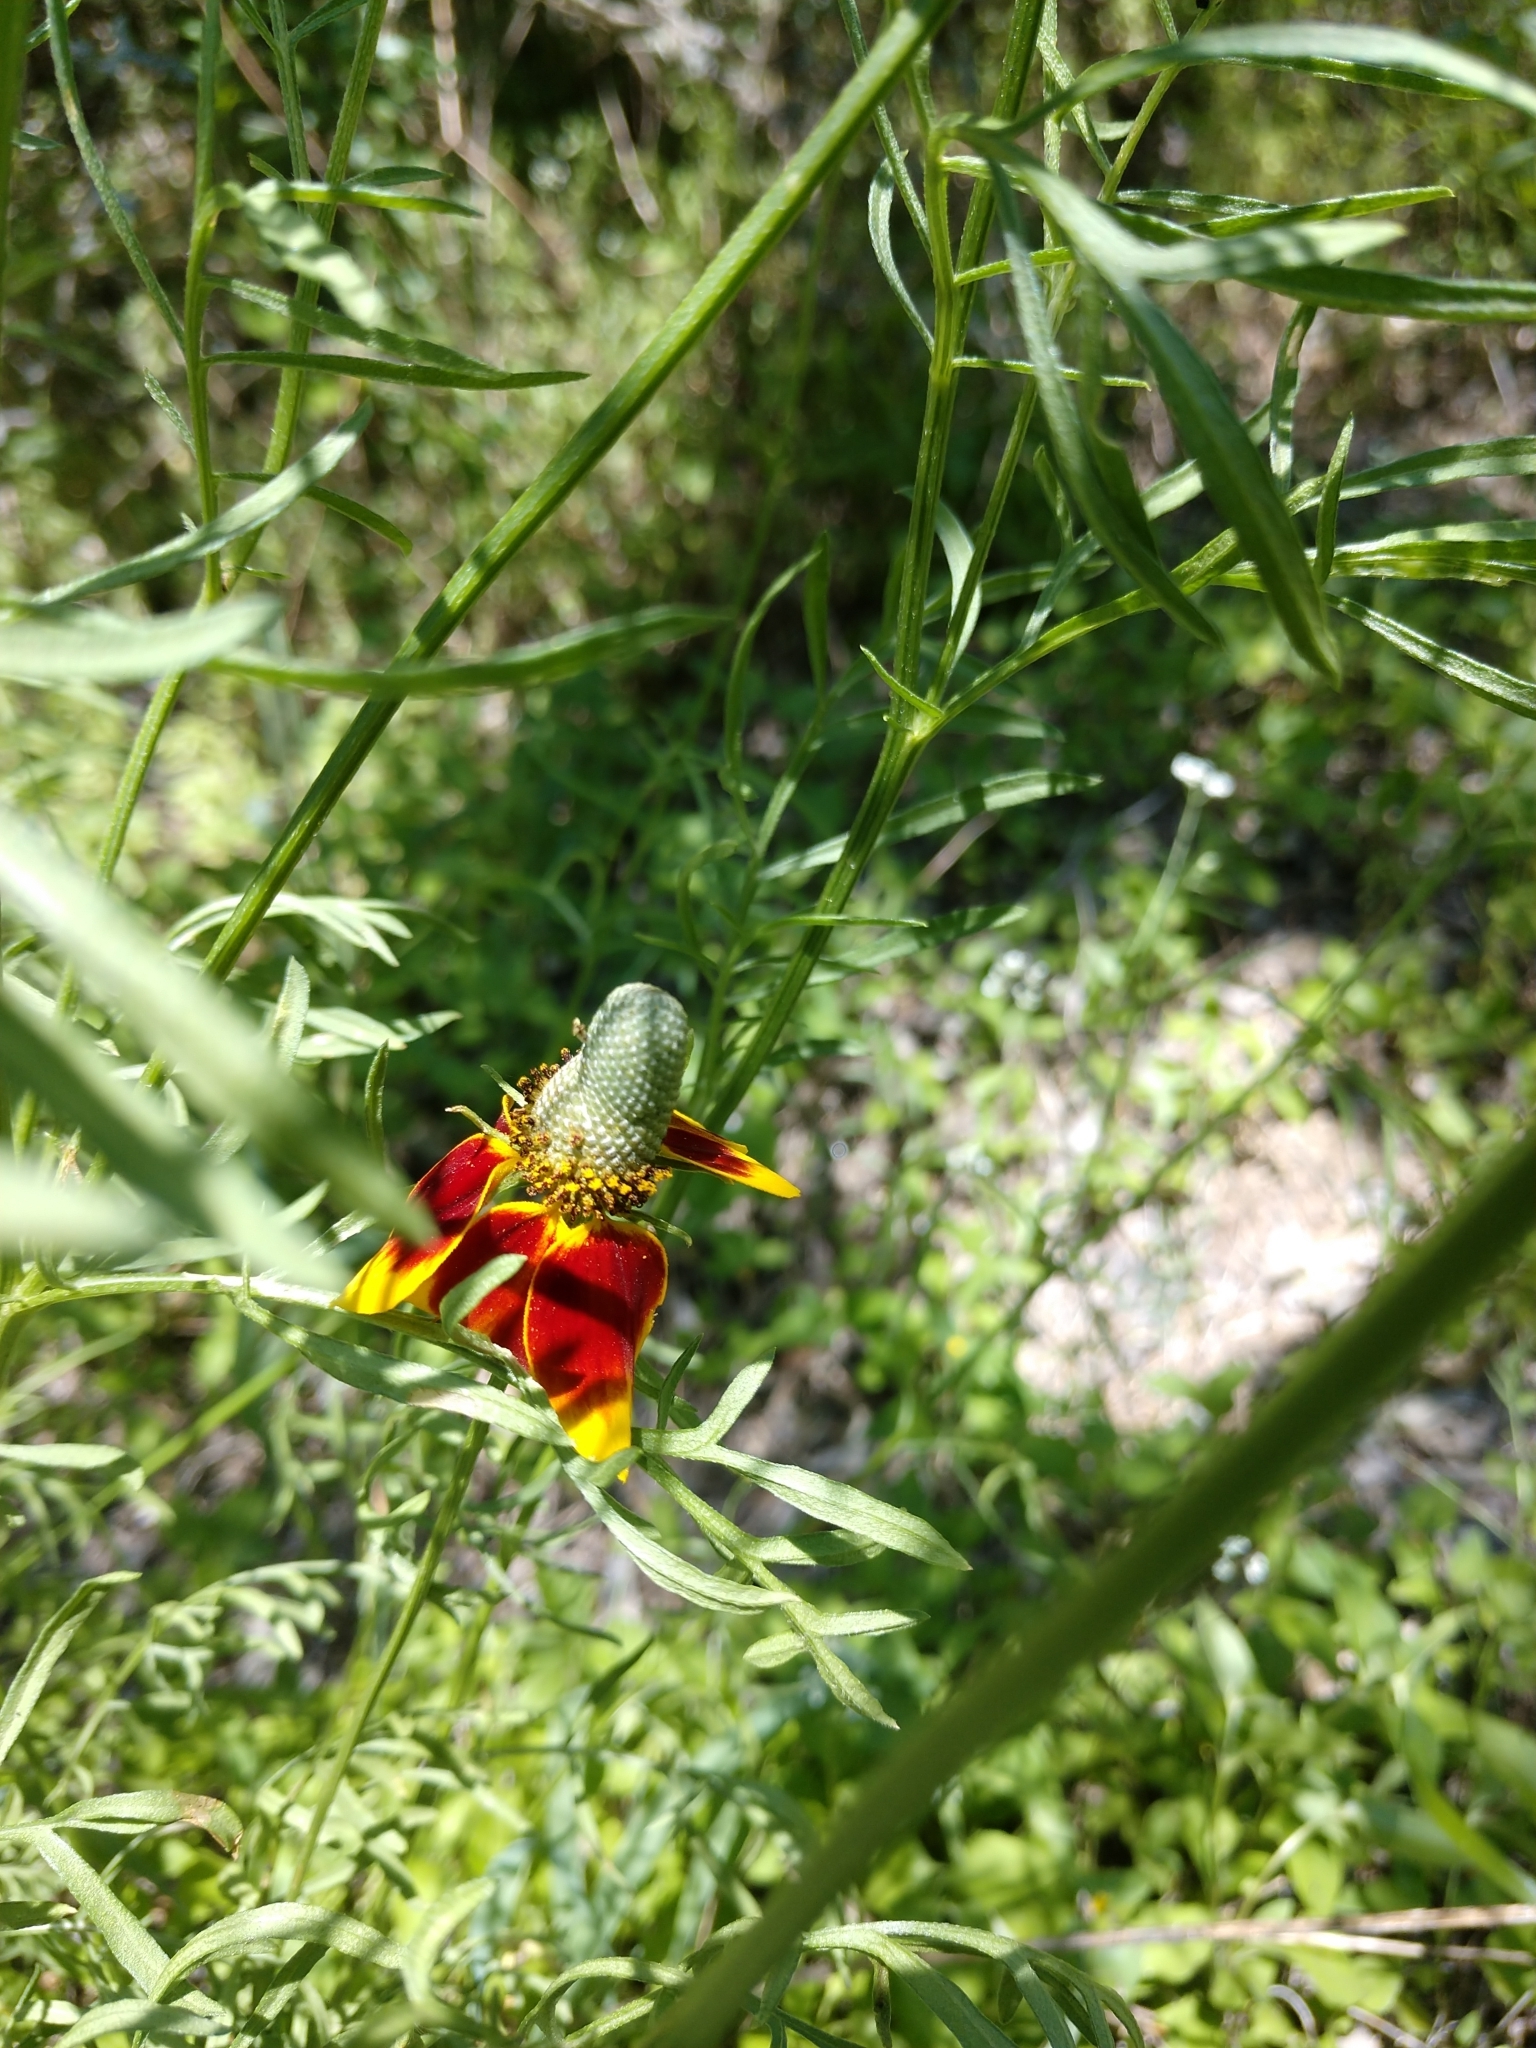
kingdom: Plantae
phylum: Tracheophyta
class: Magnoliopsida
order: Asterales
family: Asteraceae
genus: Ratibida
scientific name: Ratibida columnifera
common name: Prairie coneflower
